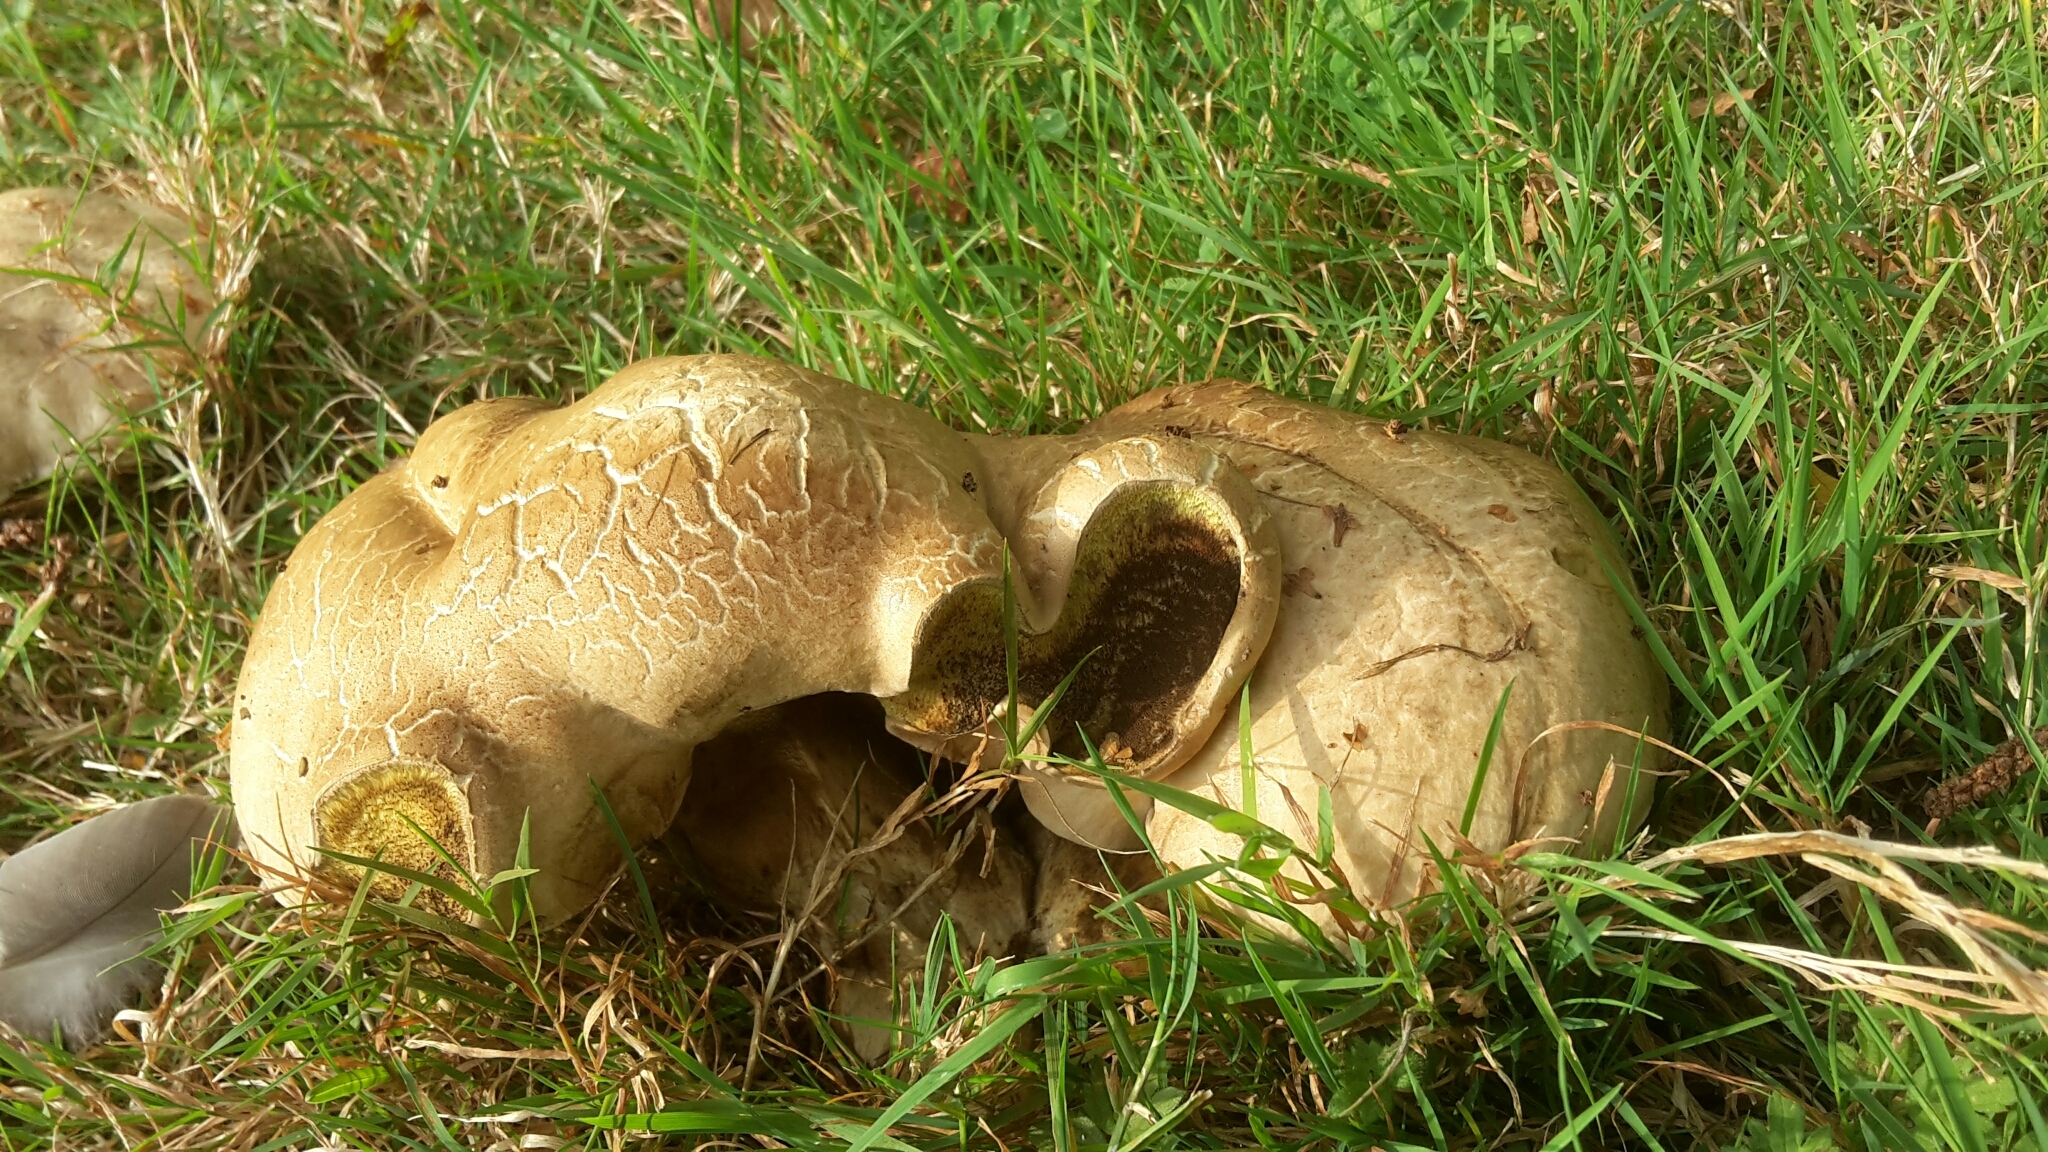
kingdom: Fungi
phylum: Basidiomycota
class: Agaricomycetes
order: Boletales
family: Boletaceae
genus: Caloboletus
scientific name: Caloboletus radicans
